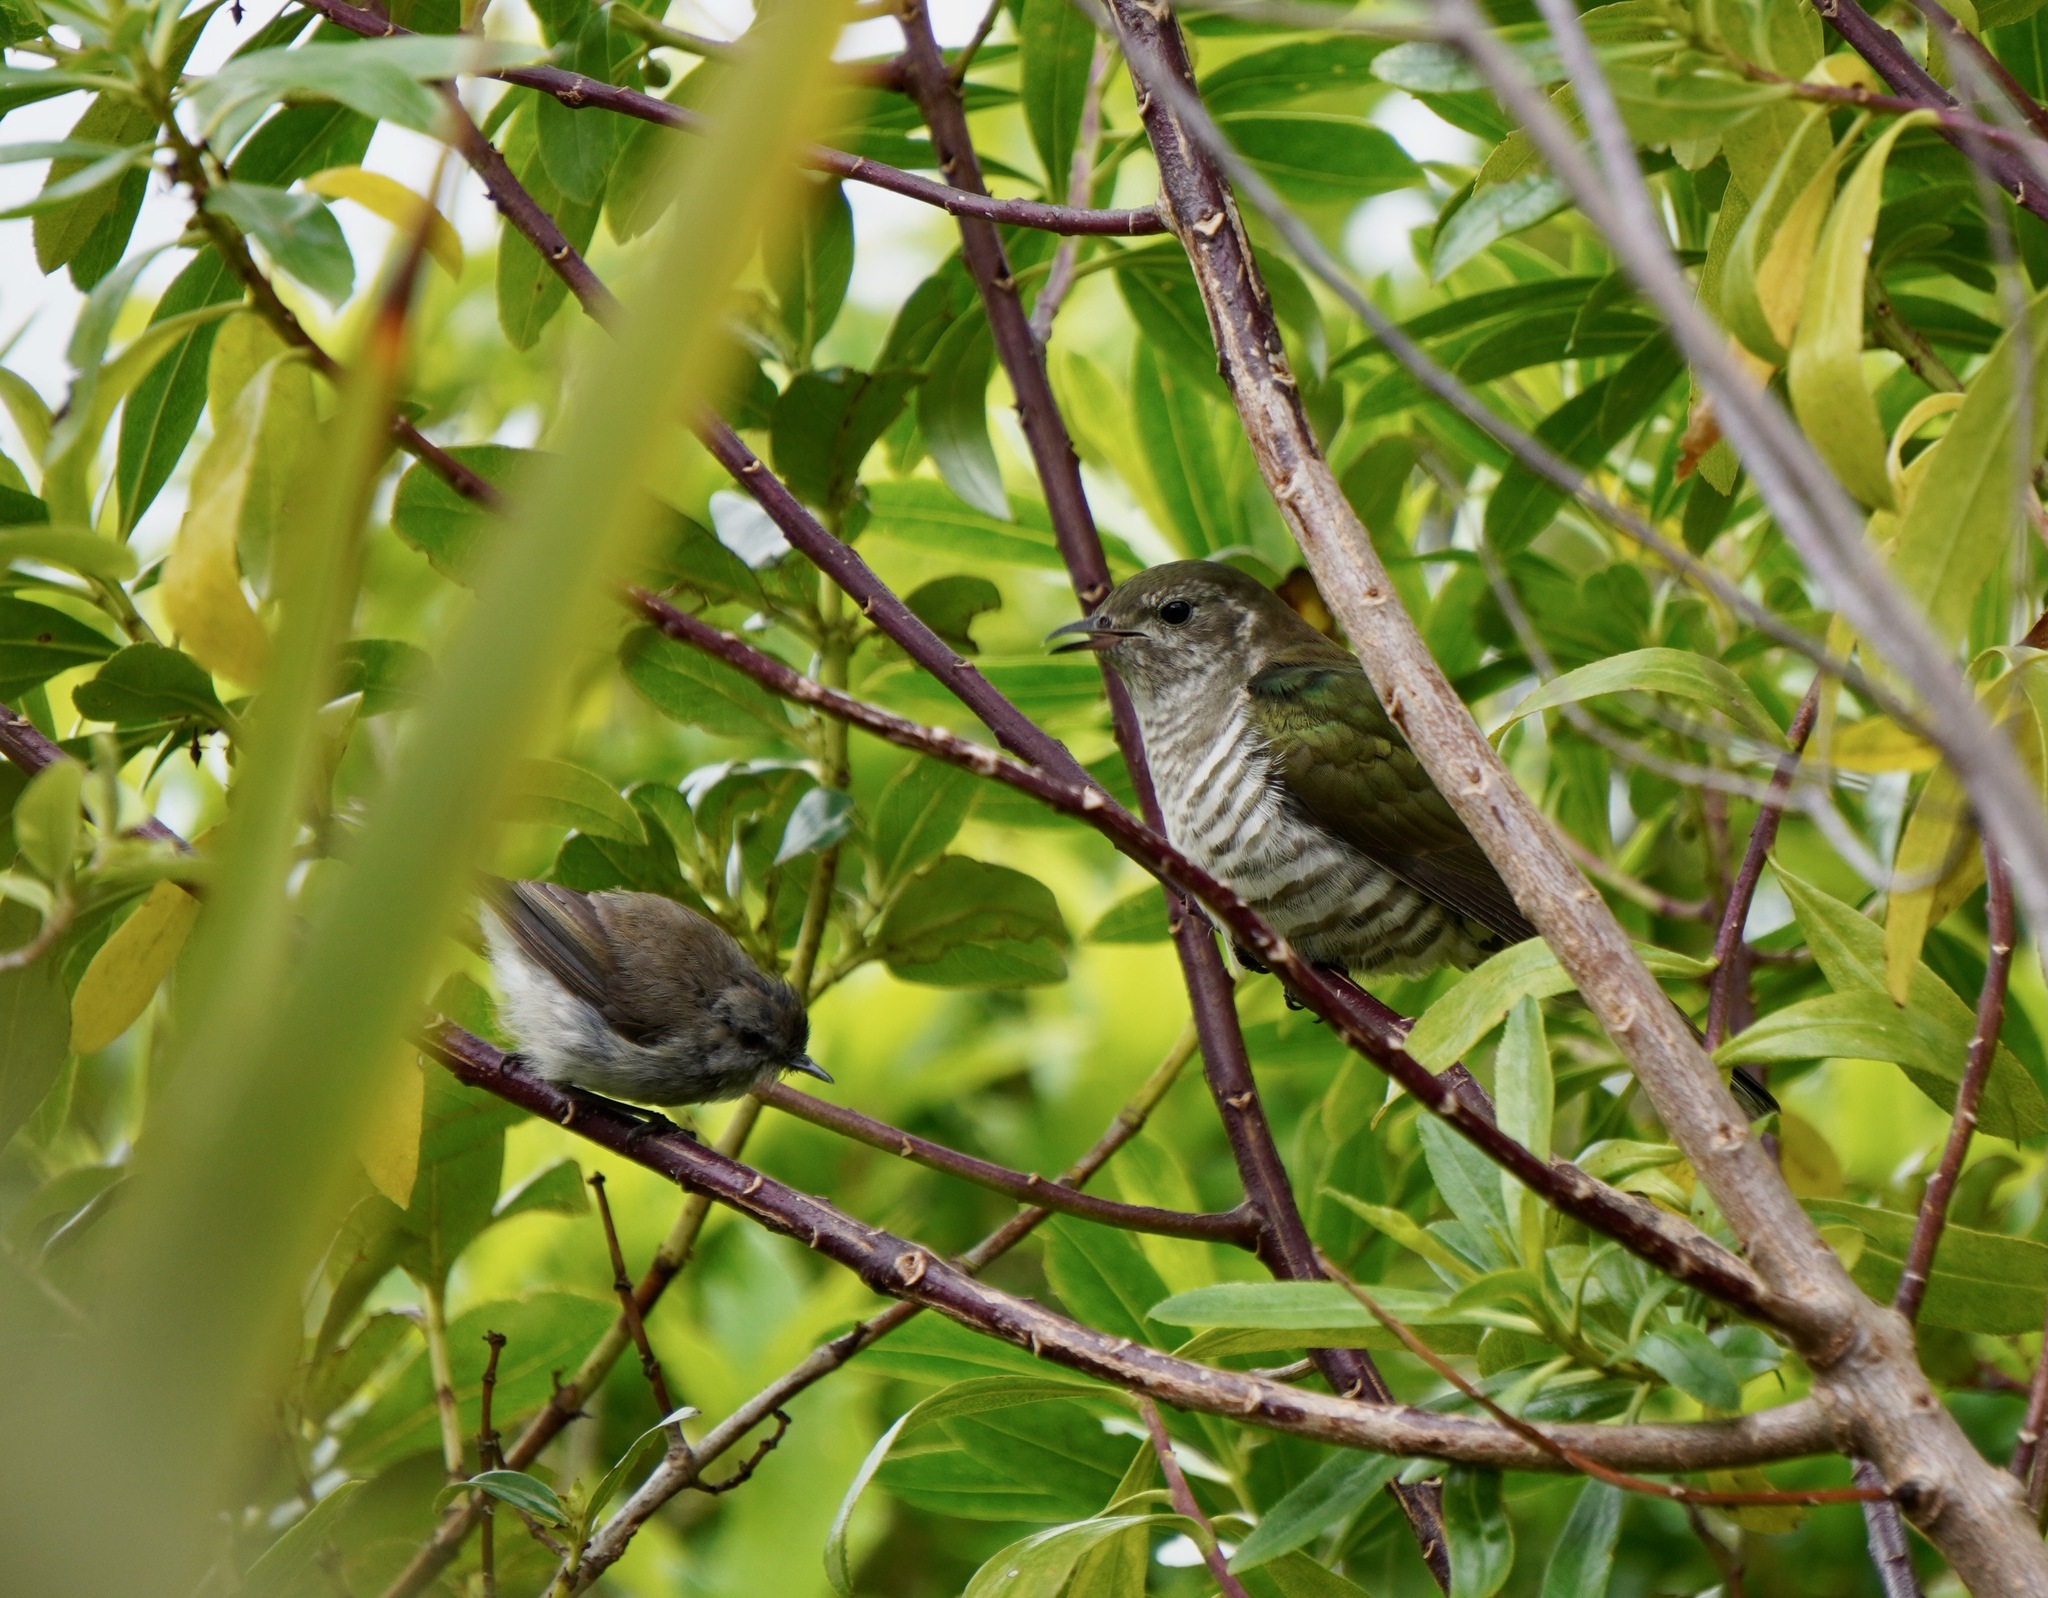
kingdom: Animalia
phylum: Chordata
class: Aves
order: Cuculiformes
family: Cuculidae
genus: Chrysococcyx
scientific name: Chrysococcyx lucidus
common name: Shining bronze cuckoo
